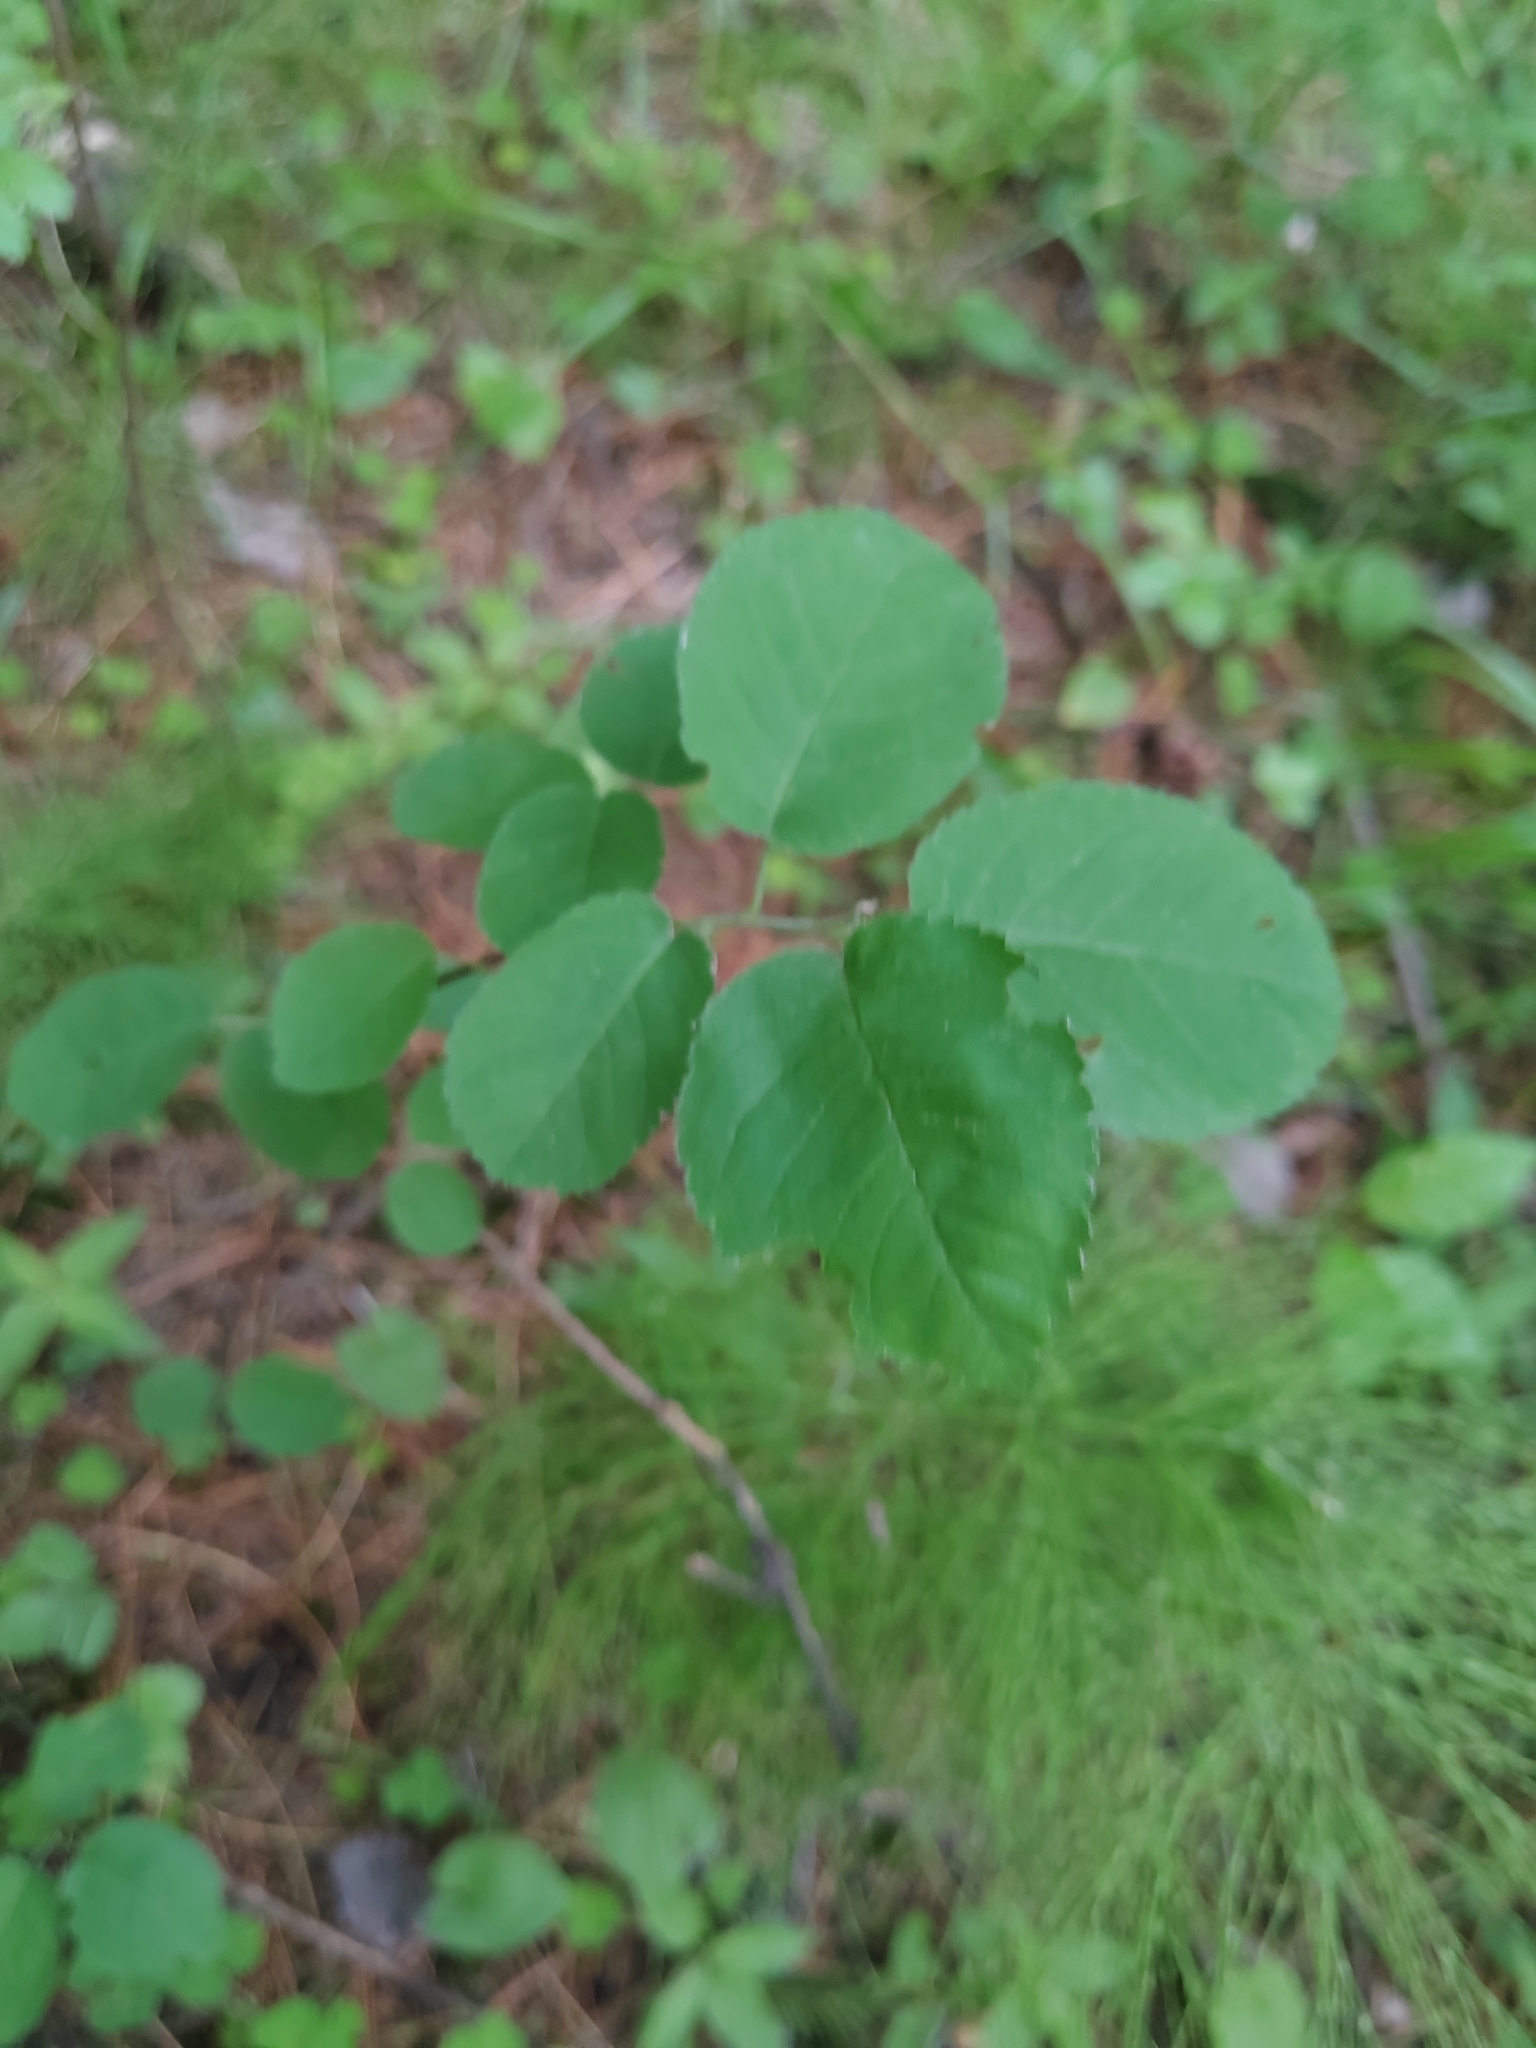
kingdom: Plantae
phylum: Tracheophyta
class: Magnoliopsida
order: Rosales
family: Rosaceae
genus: Amelanchier
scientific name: Amelanchier
